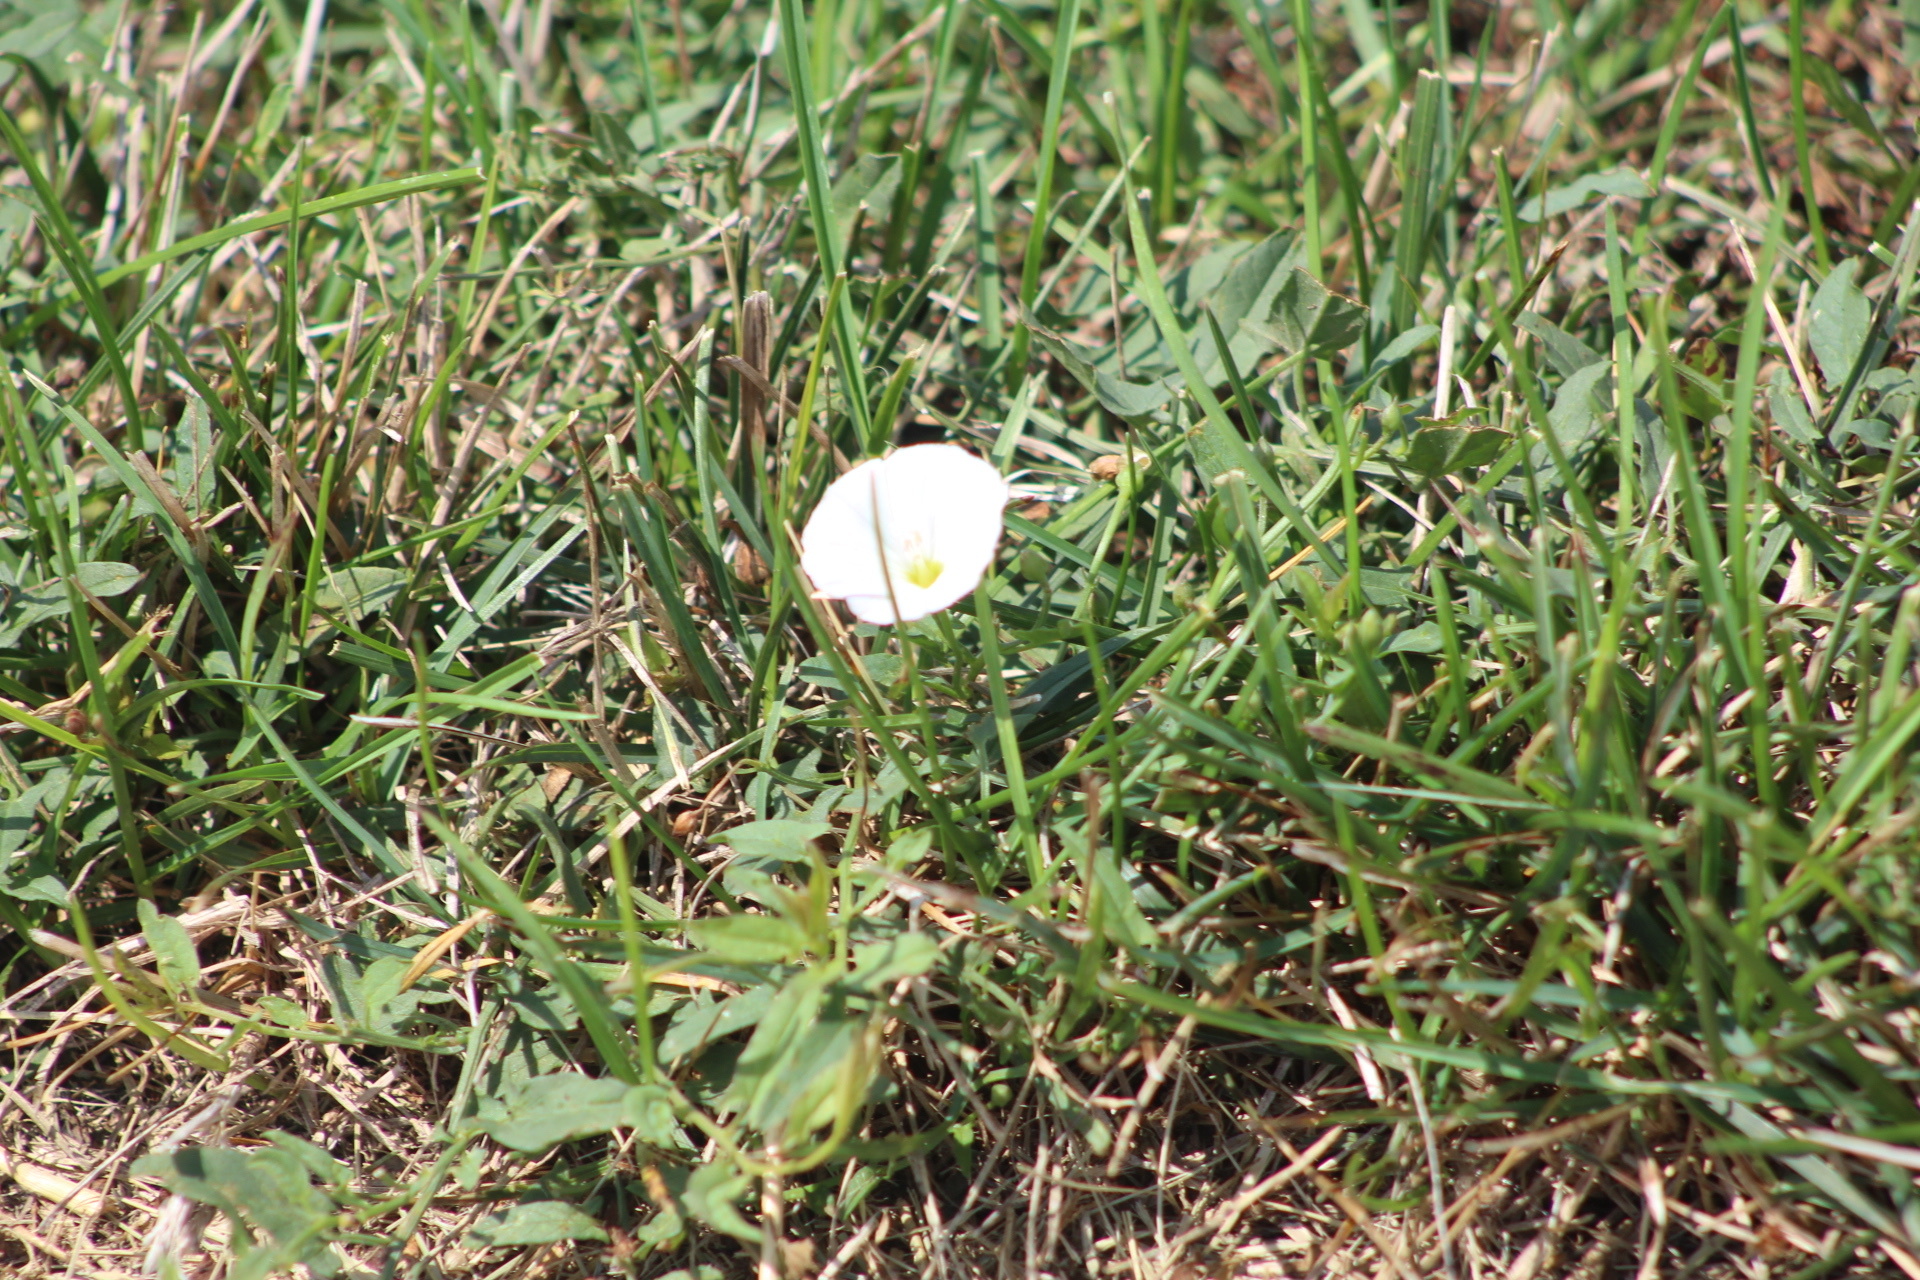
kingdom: Plantae
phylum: Tracheophyta
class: Magnoliopsida
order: Solanales
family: Convolvulaceae
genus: Convolvulus
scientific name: Convolvulus arvensis
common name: Field bindweed
